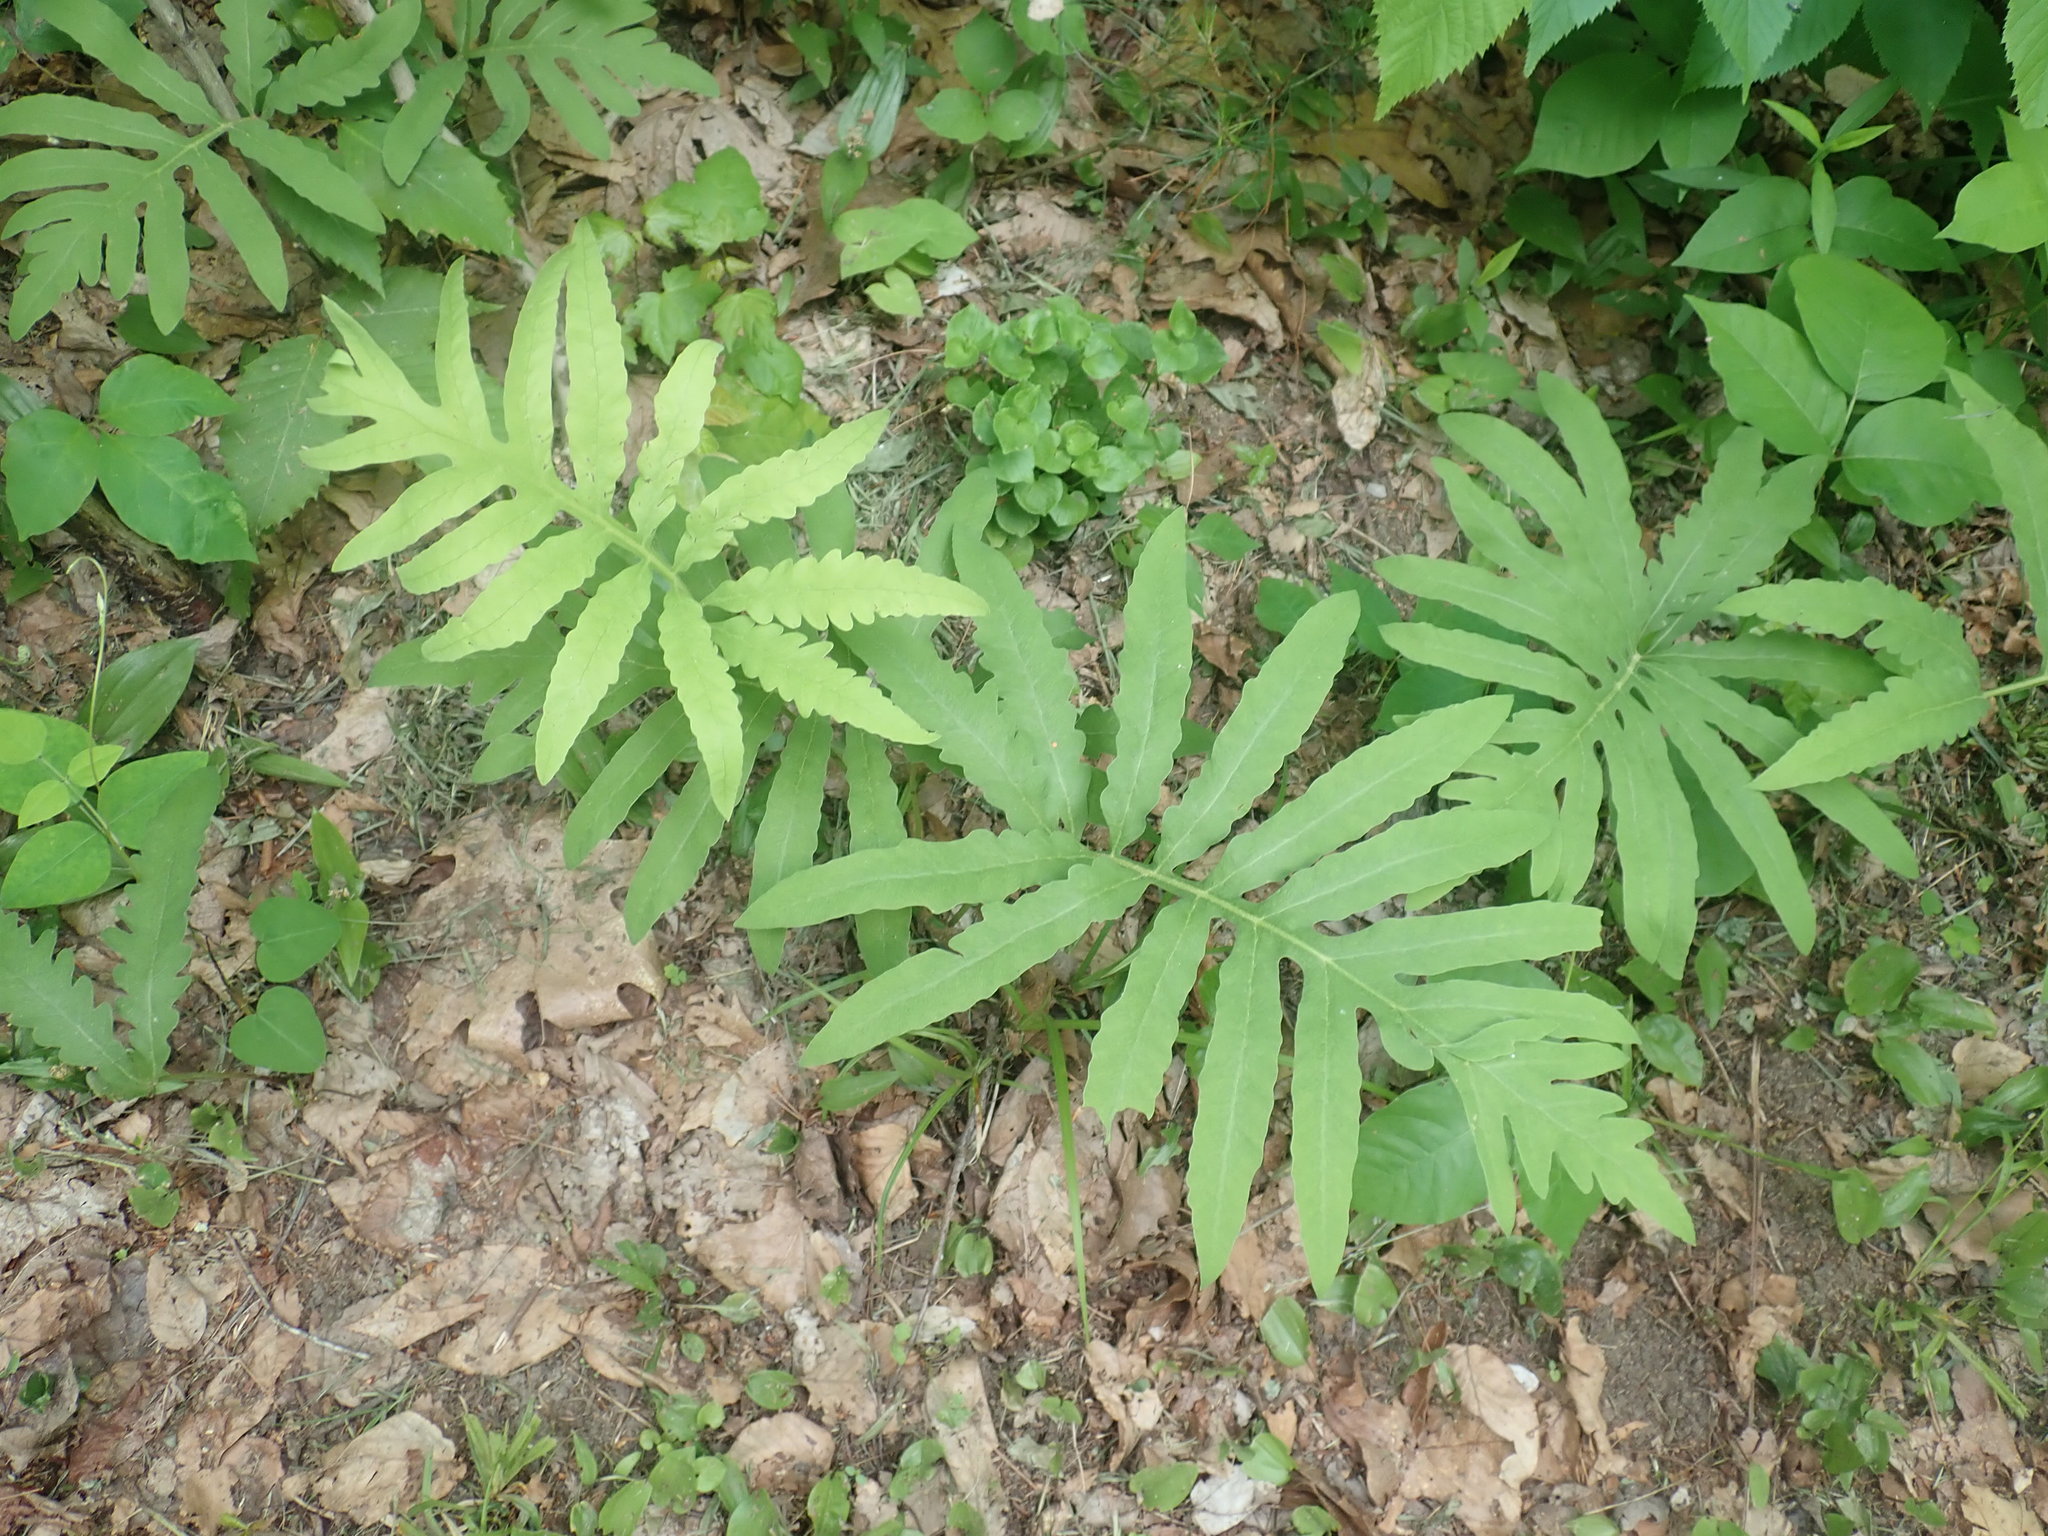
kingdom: Plantae
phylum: Tracheophyta
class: Polypodiopsida
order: Polypodiales
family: Onocleaceae
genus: Onoclea
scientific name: Onoclea sensibilis
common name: Sensitive fern
